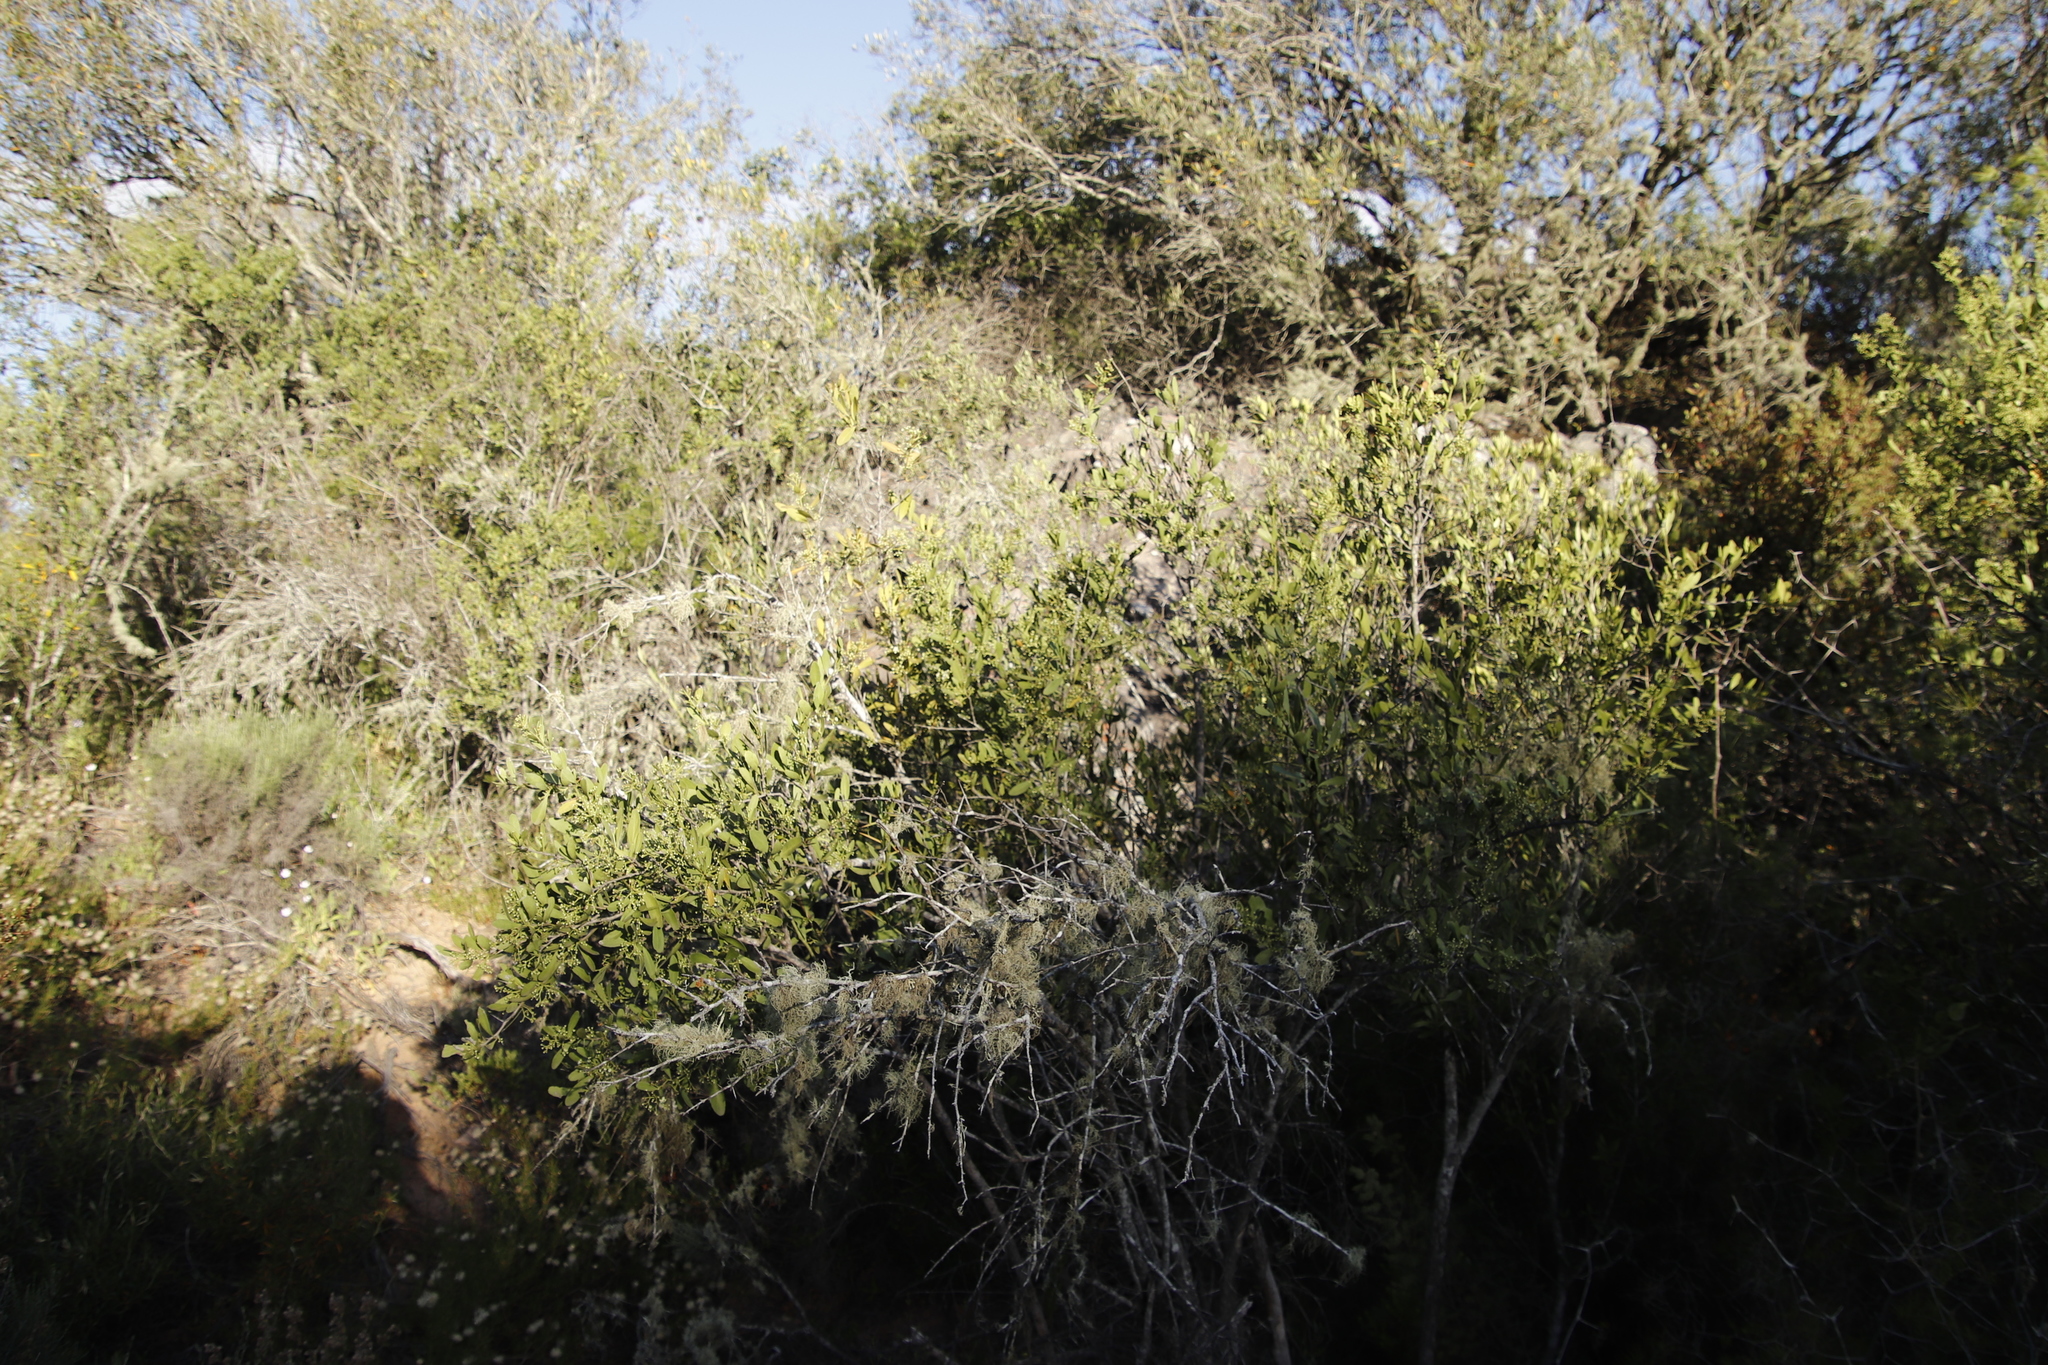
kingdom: Plantae
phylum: Tracheophyta
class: Magnoliopsida
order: Celastrales
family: Celastraceae
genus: Gymnosporia
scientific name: Gymnosporia buxifolia
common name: Common spike-thorn
